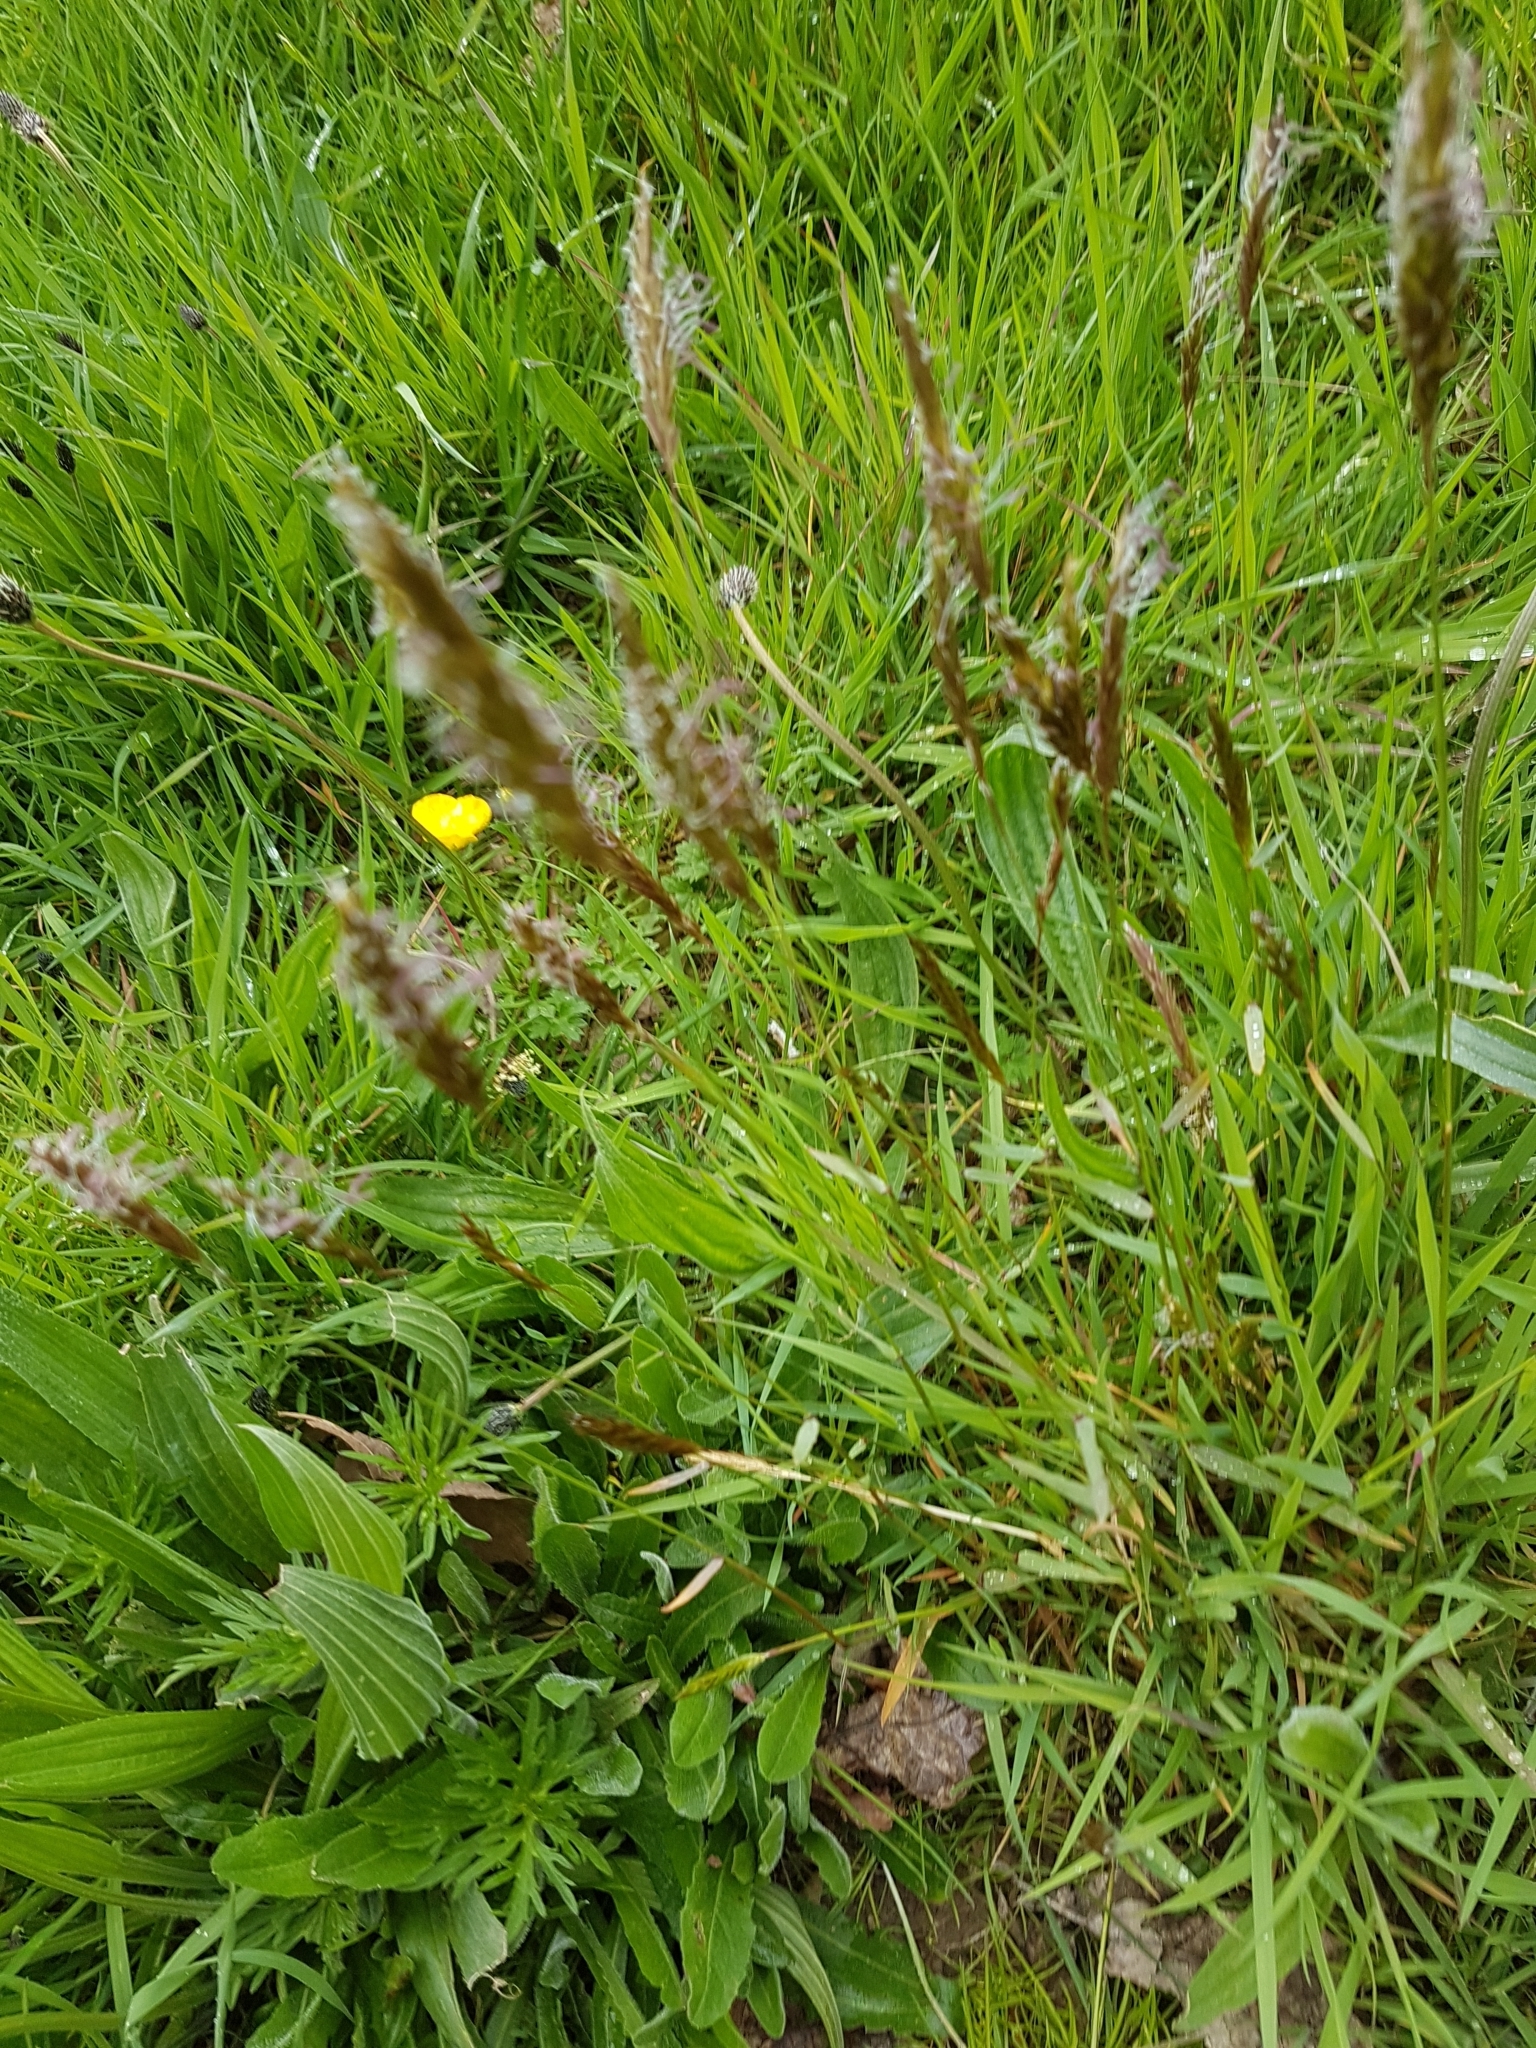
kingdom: Plantae
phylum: Tracheophyta
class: Liliopsida
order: Poales
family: Poaceae
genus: Anthoxanthum
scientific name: Anthoxanthum odoratum
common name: Sweet vernalgrass
